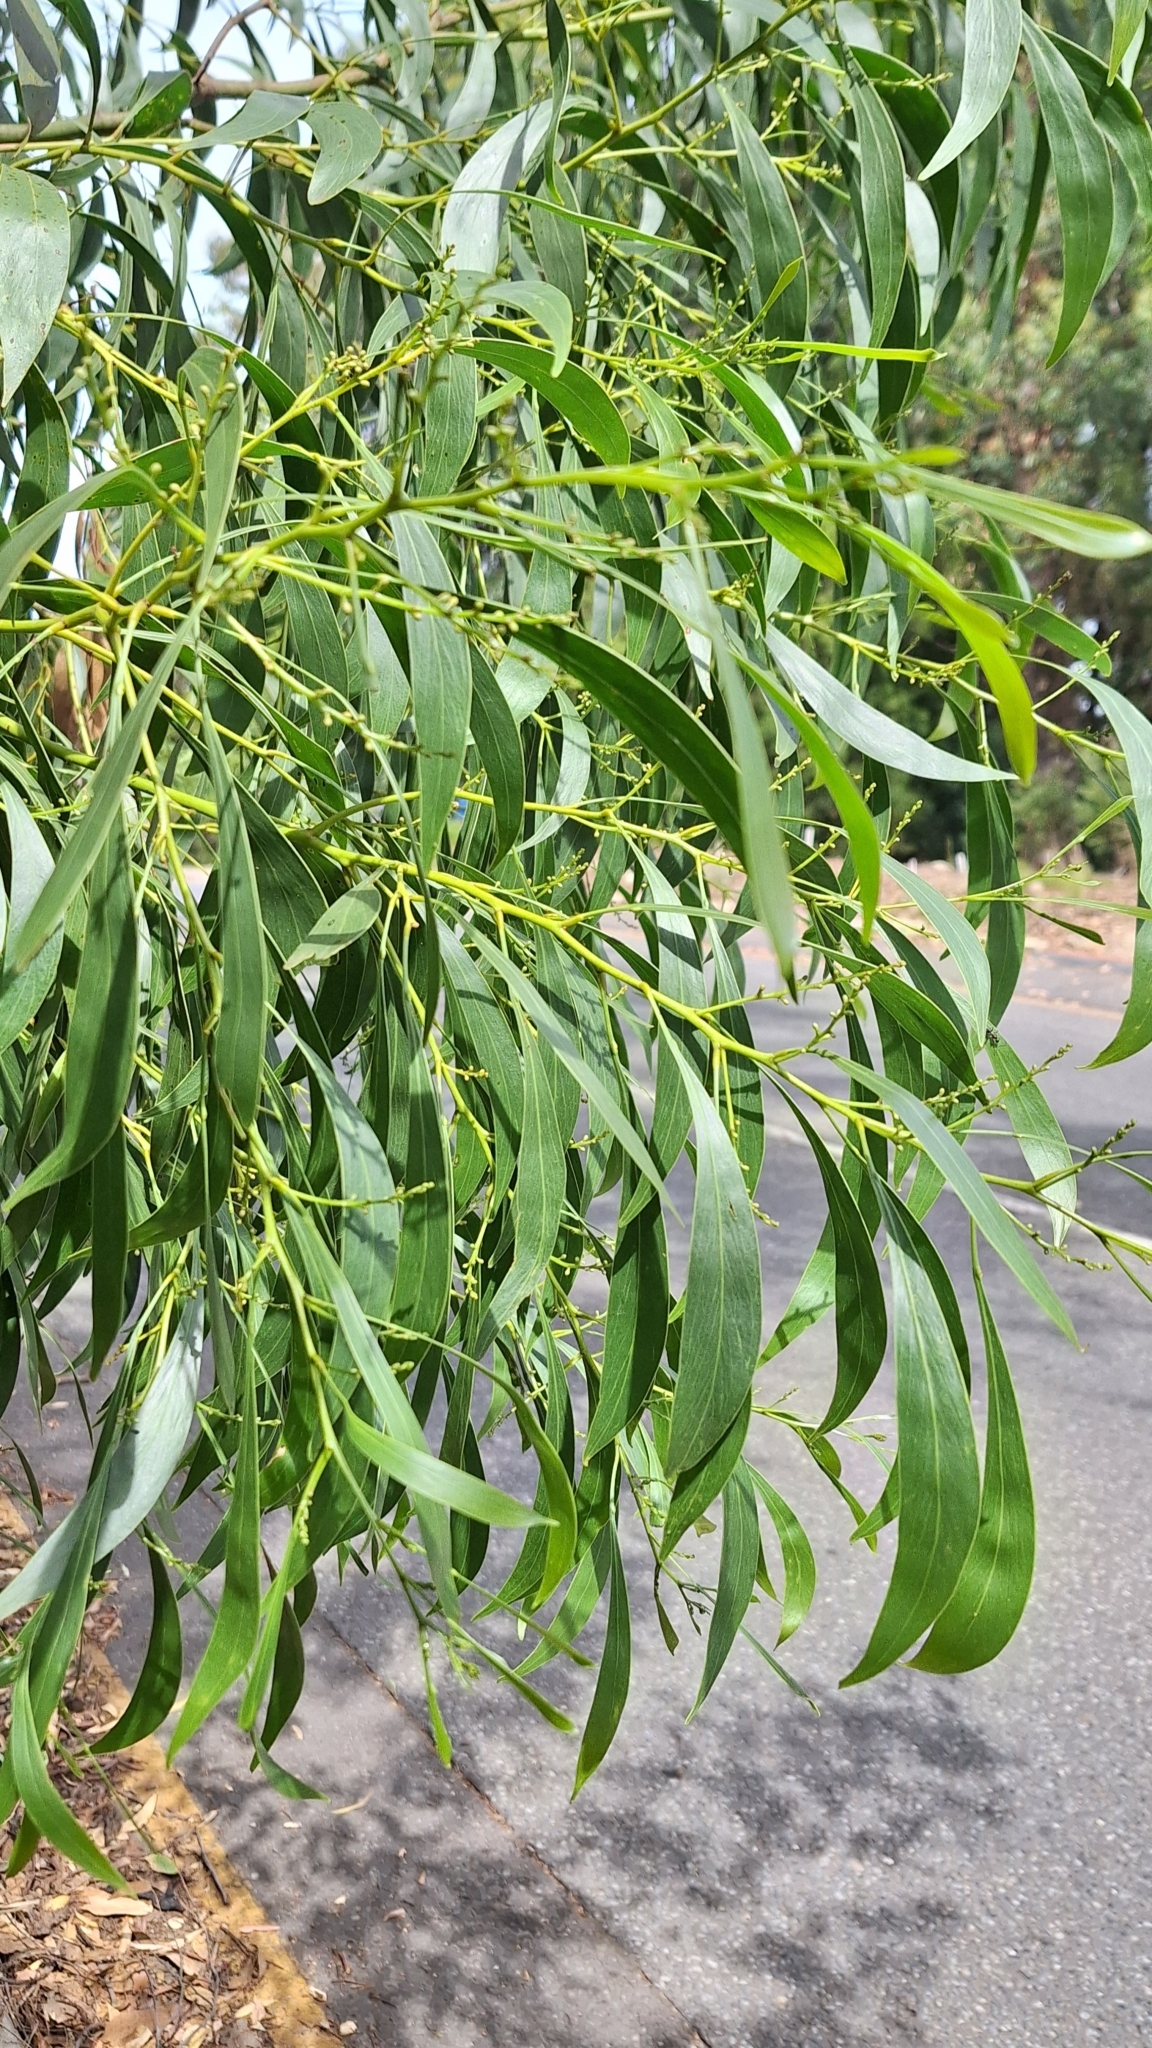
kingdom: Plantae
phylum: Tracheophyta
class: Magnoliopsida
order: Fabales
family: Fabaceae
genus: Acacia
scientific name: Acacia pycnantha
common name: Golden wattle
